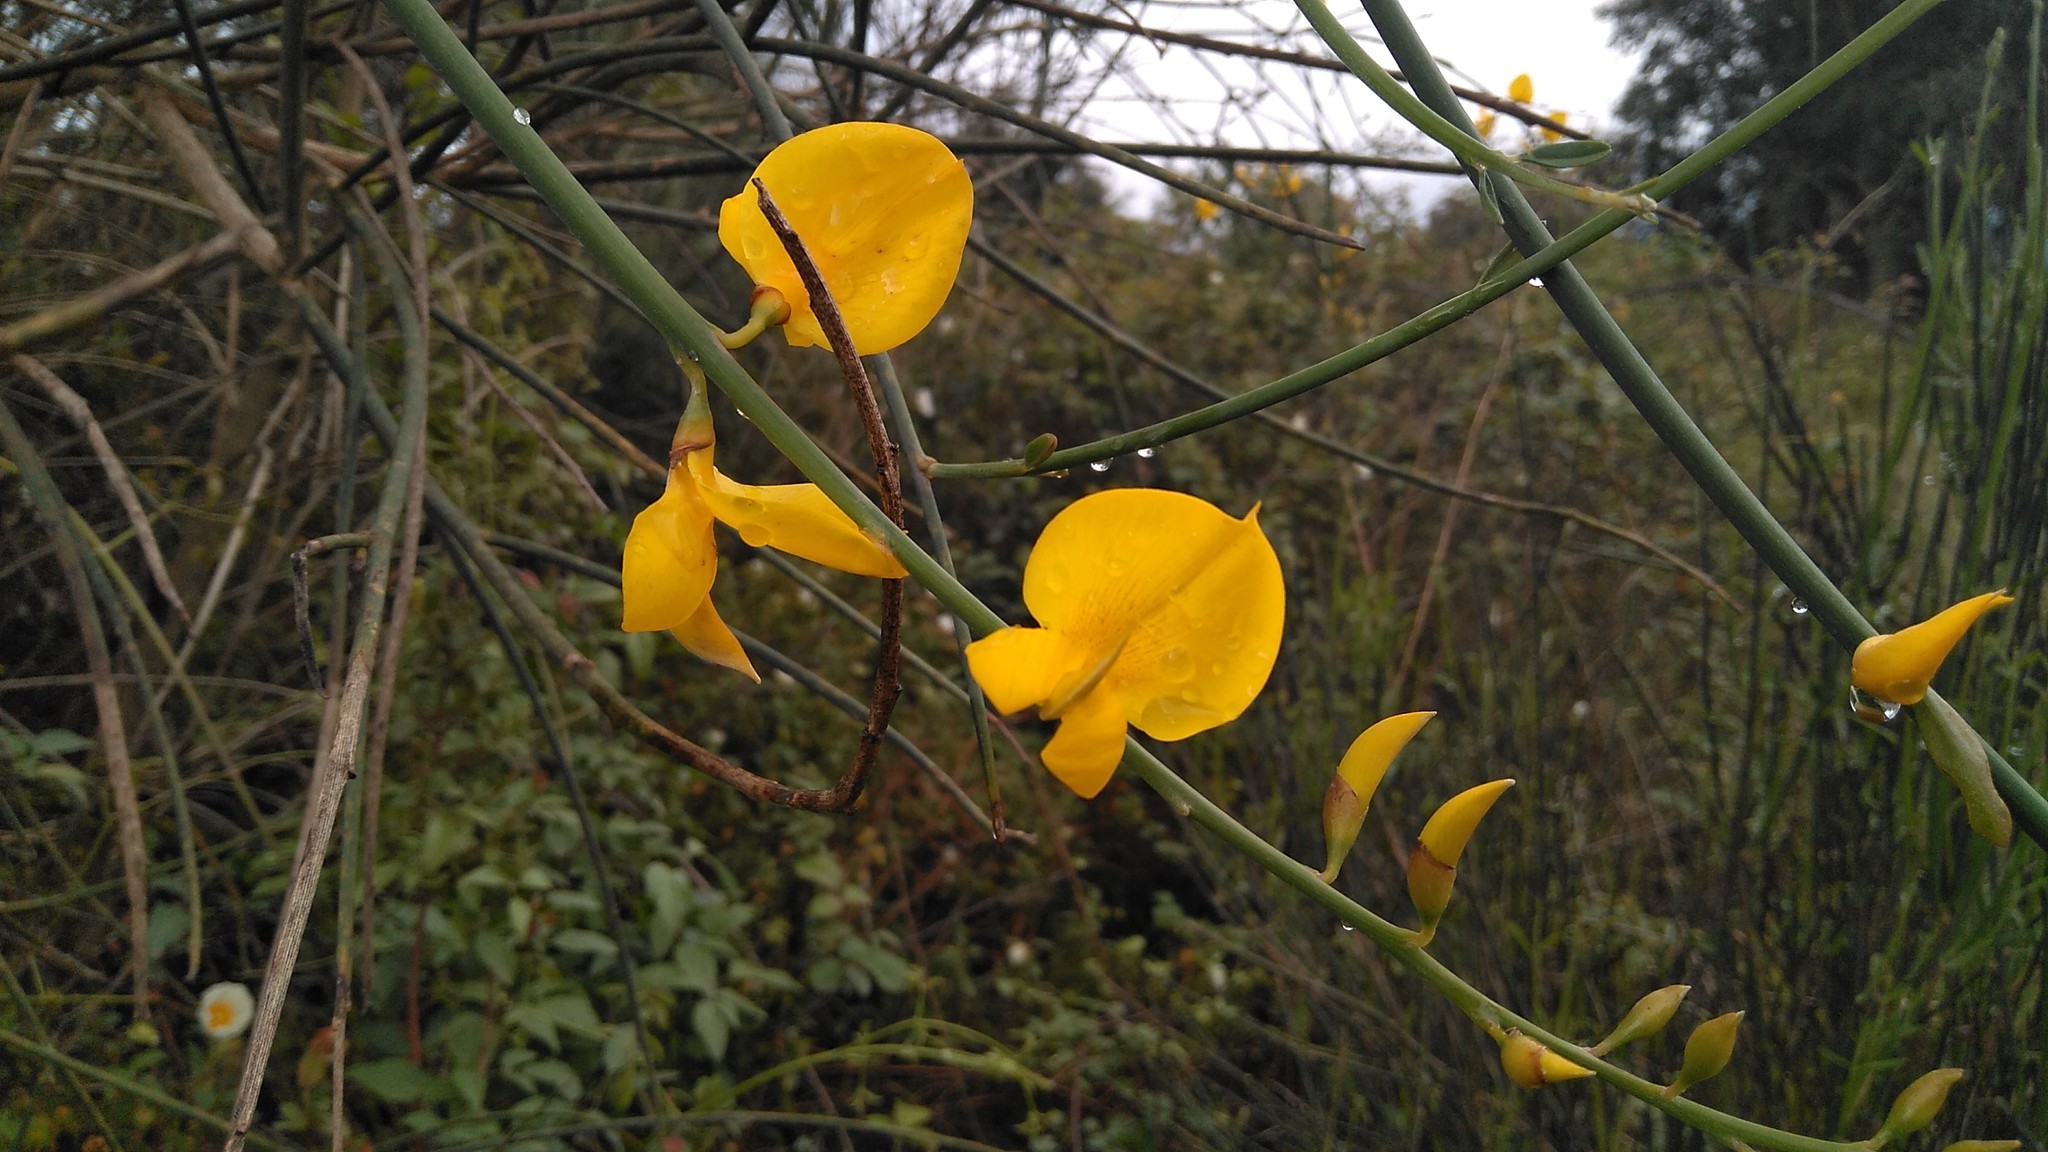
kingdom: Plantae
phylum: Tracheophyta
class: Magnoliopsida
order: Fabales
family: Fabaceae
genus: Spartium
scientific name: Spartium junceum
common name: Spanish broom
